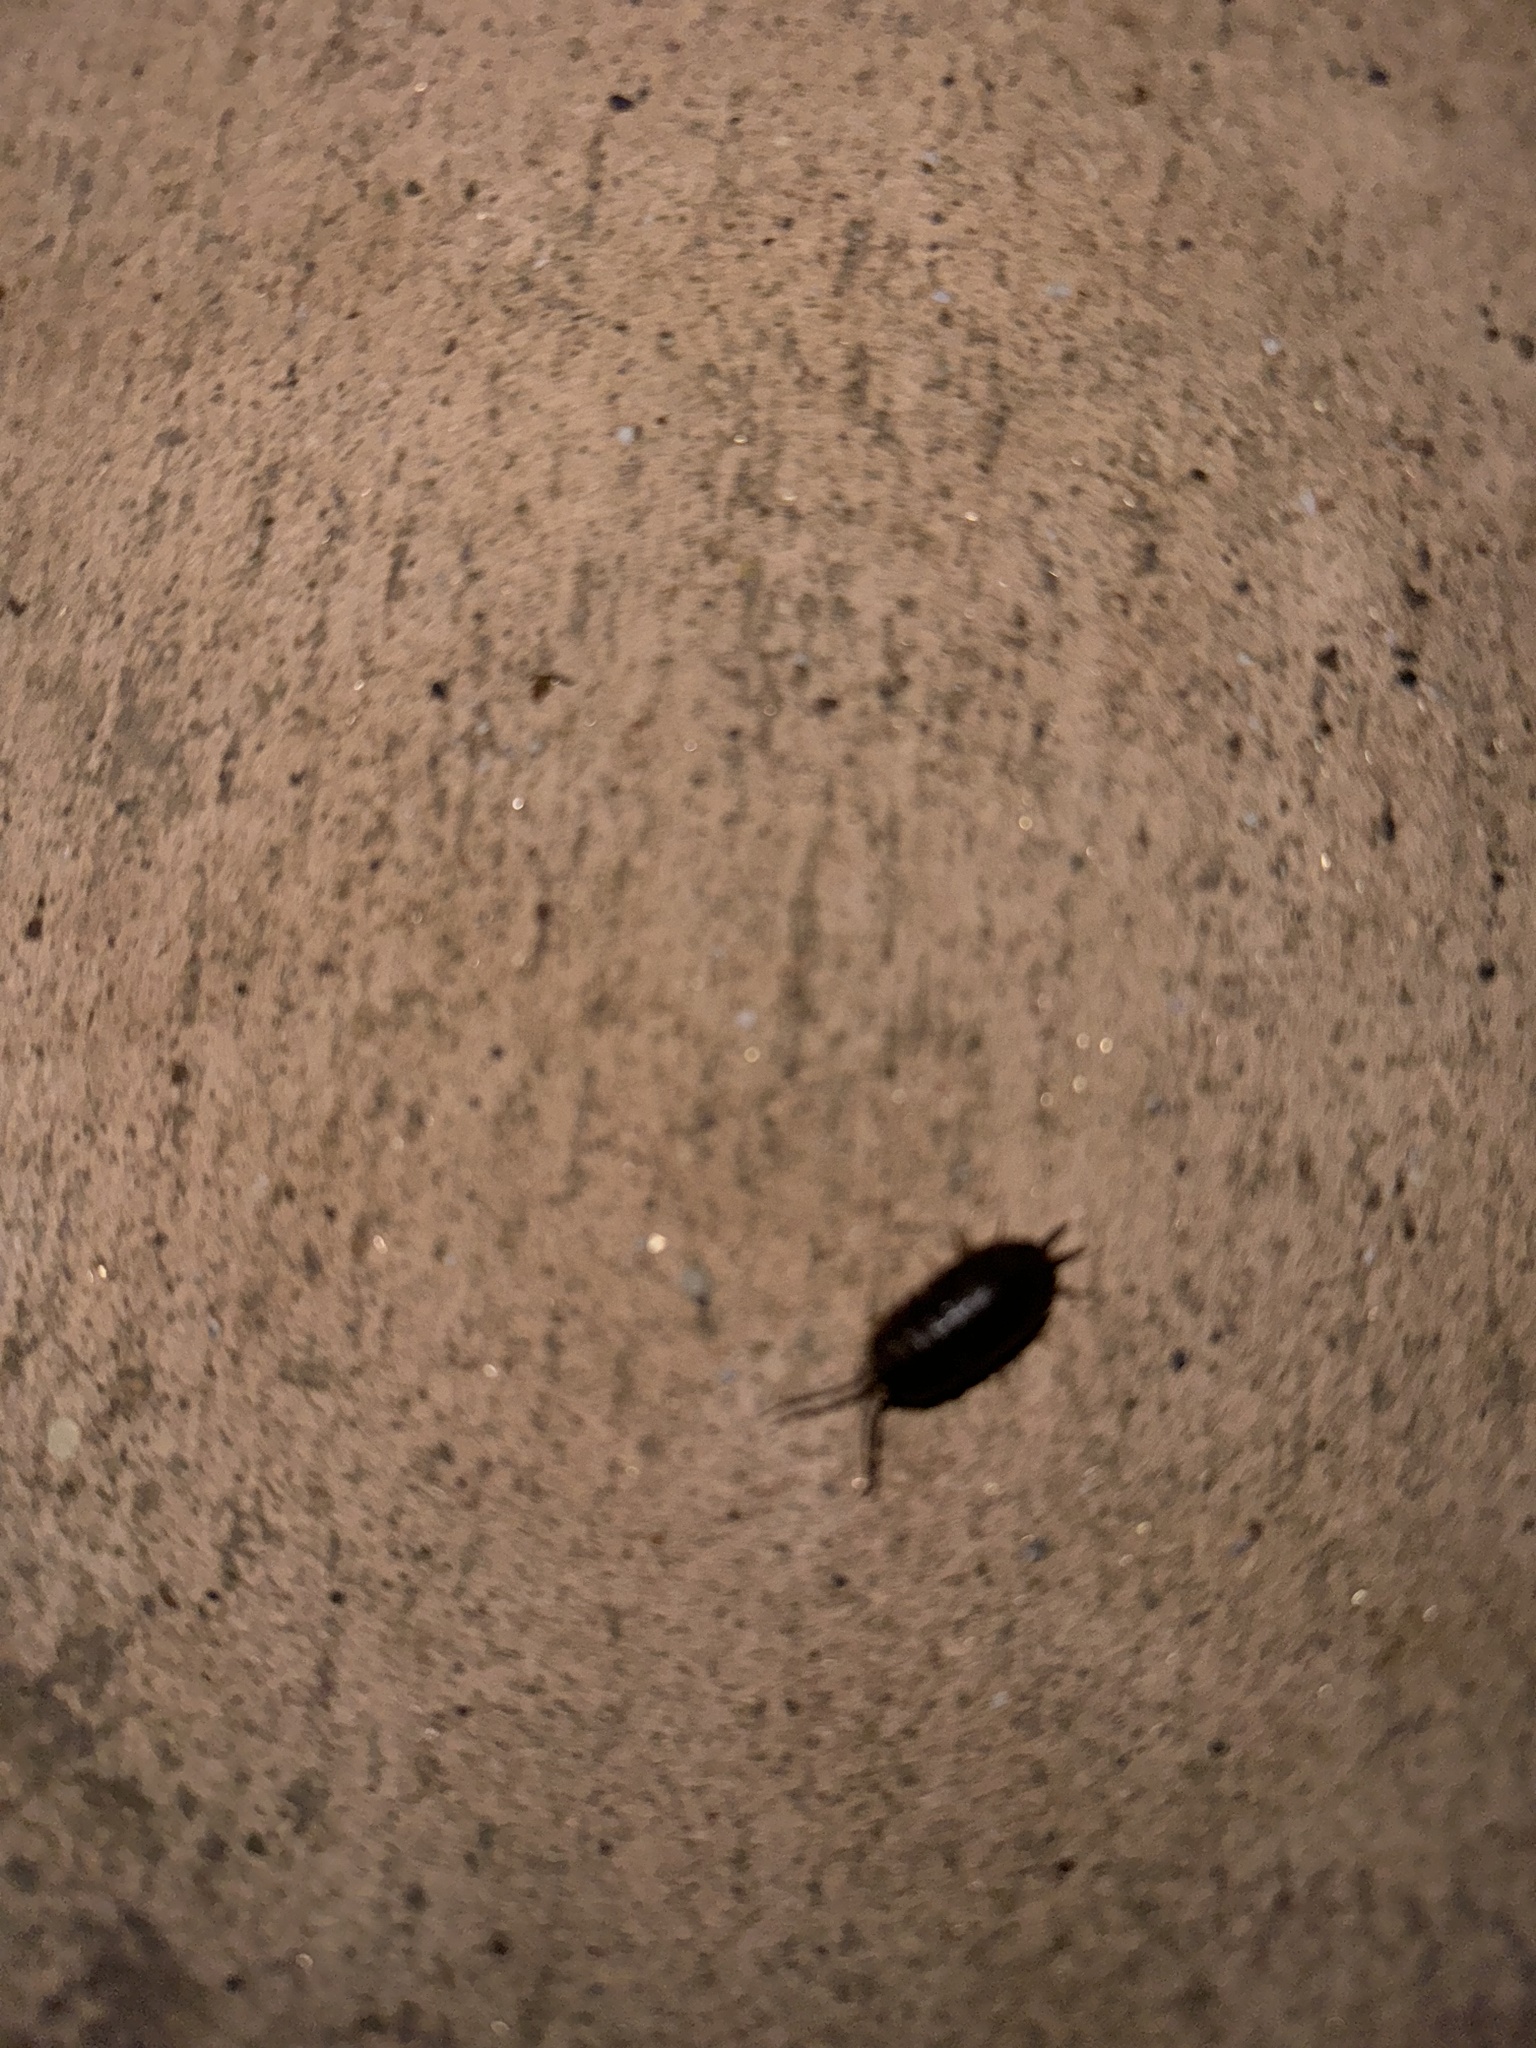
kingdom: Animalia
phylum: Arthropoda
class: Malacostraca
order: Isopoda
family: Porcellionidae
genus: Porcellio
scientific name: Porcellio laevis
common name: Swift woodlouse
